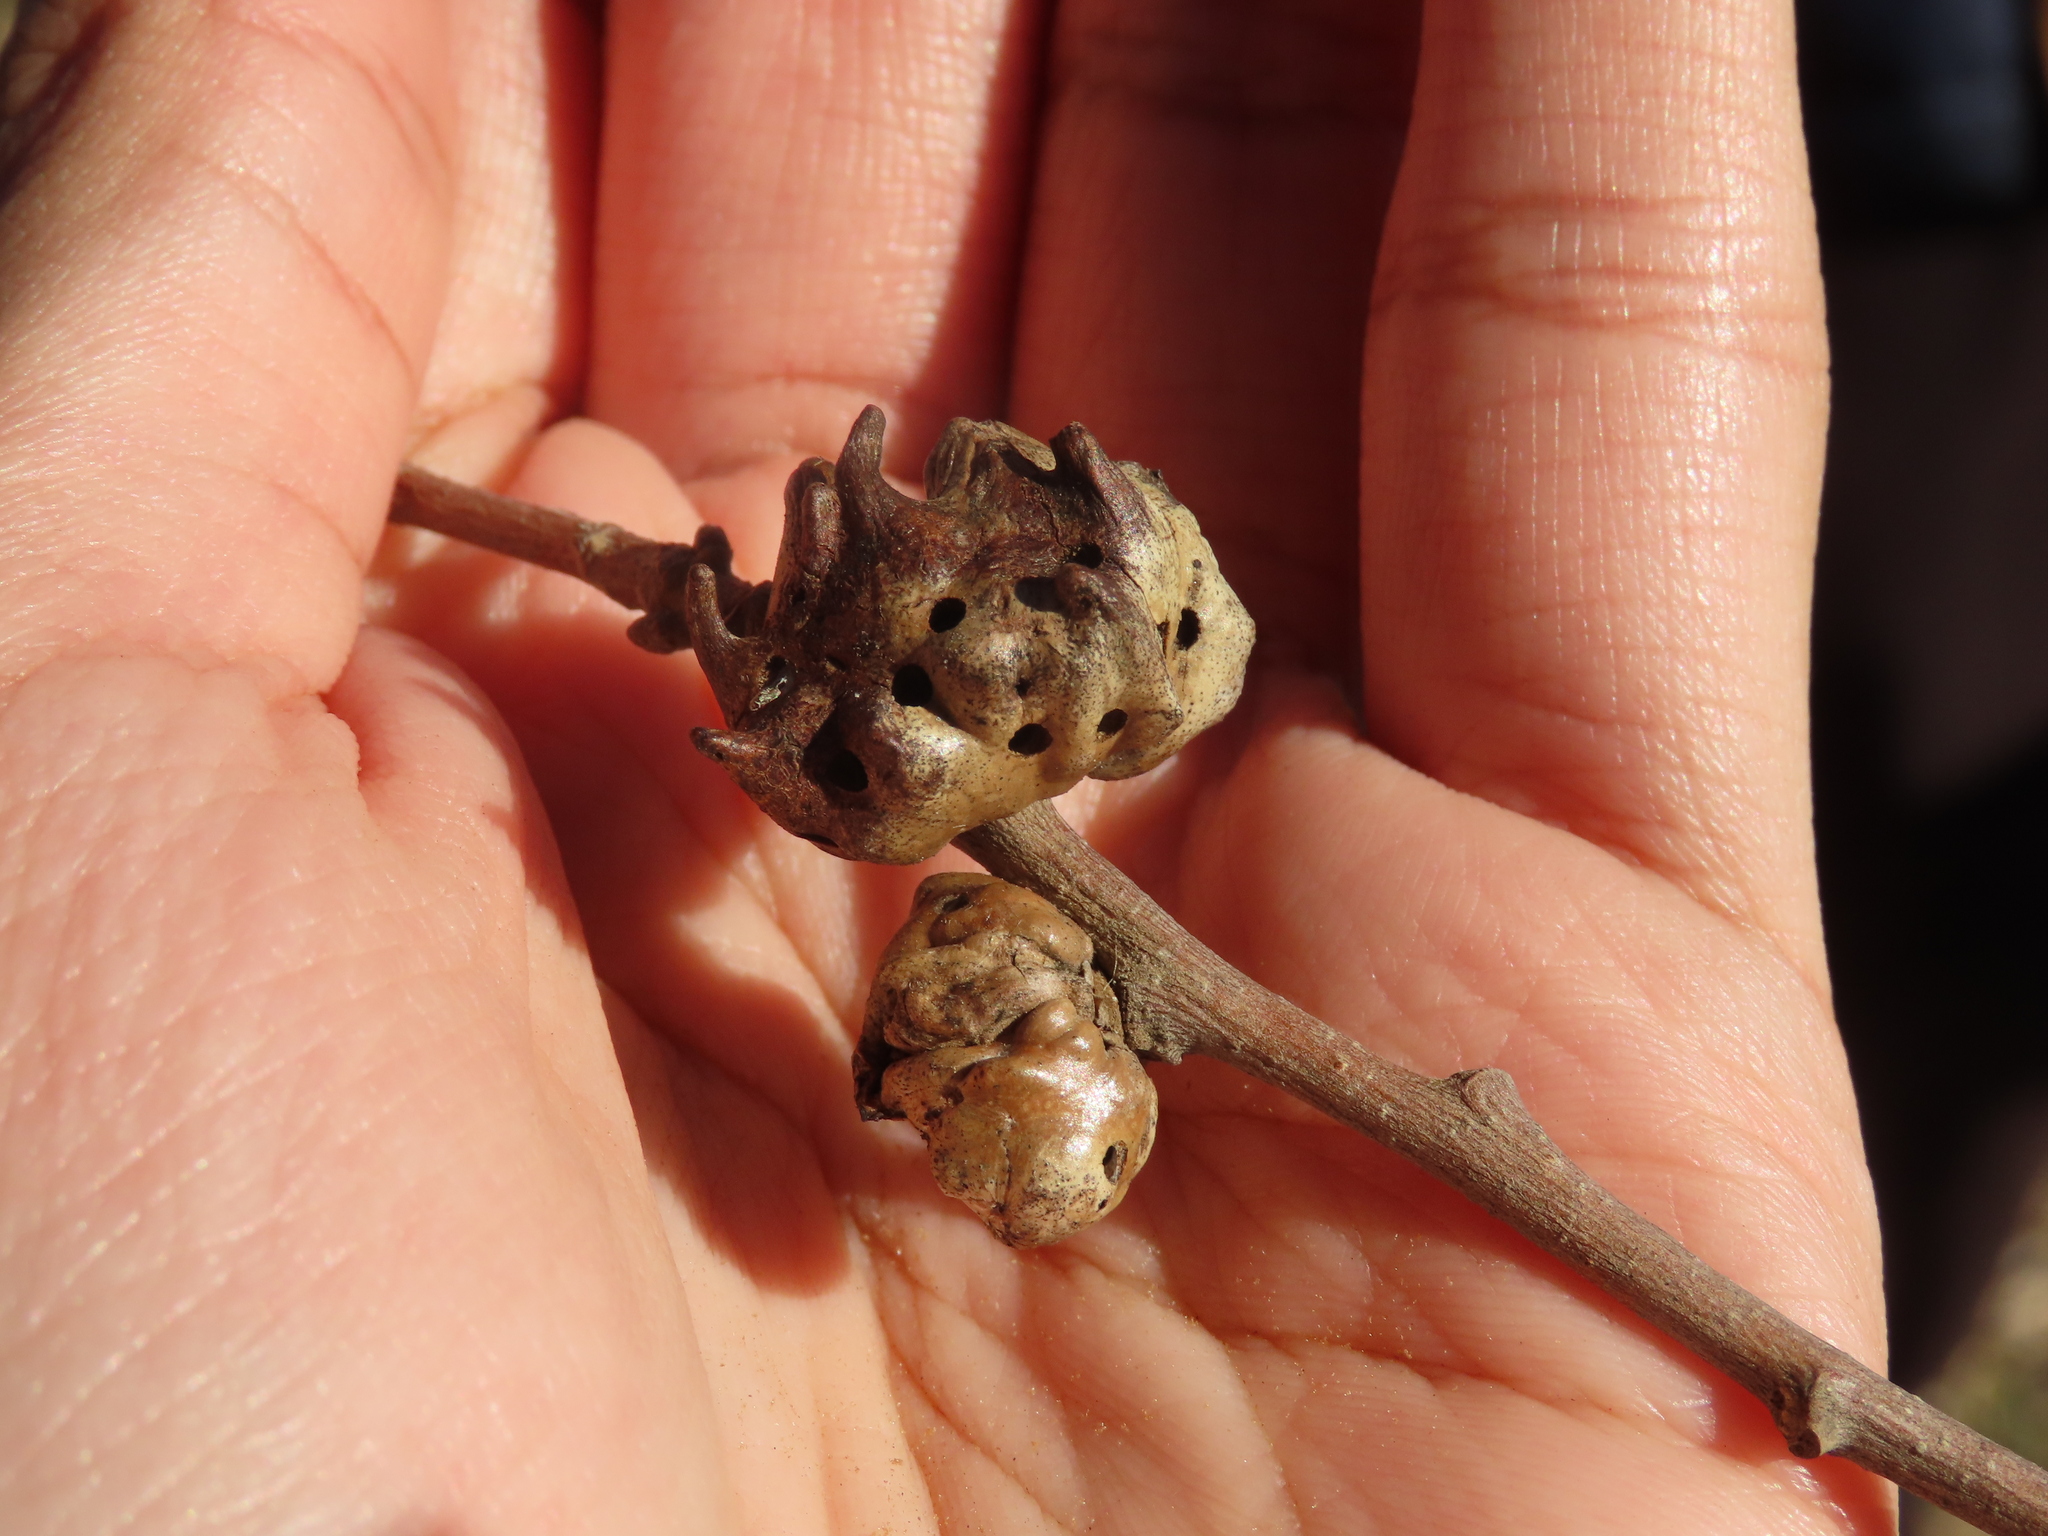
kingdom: Animalia
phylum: Arthropoda
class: Insecta
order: Hymenoptera
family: Cynipidae
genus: Andricus
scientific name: Andricus coriarius
